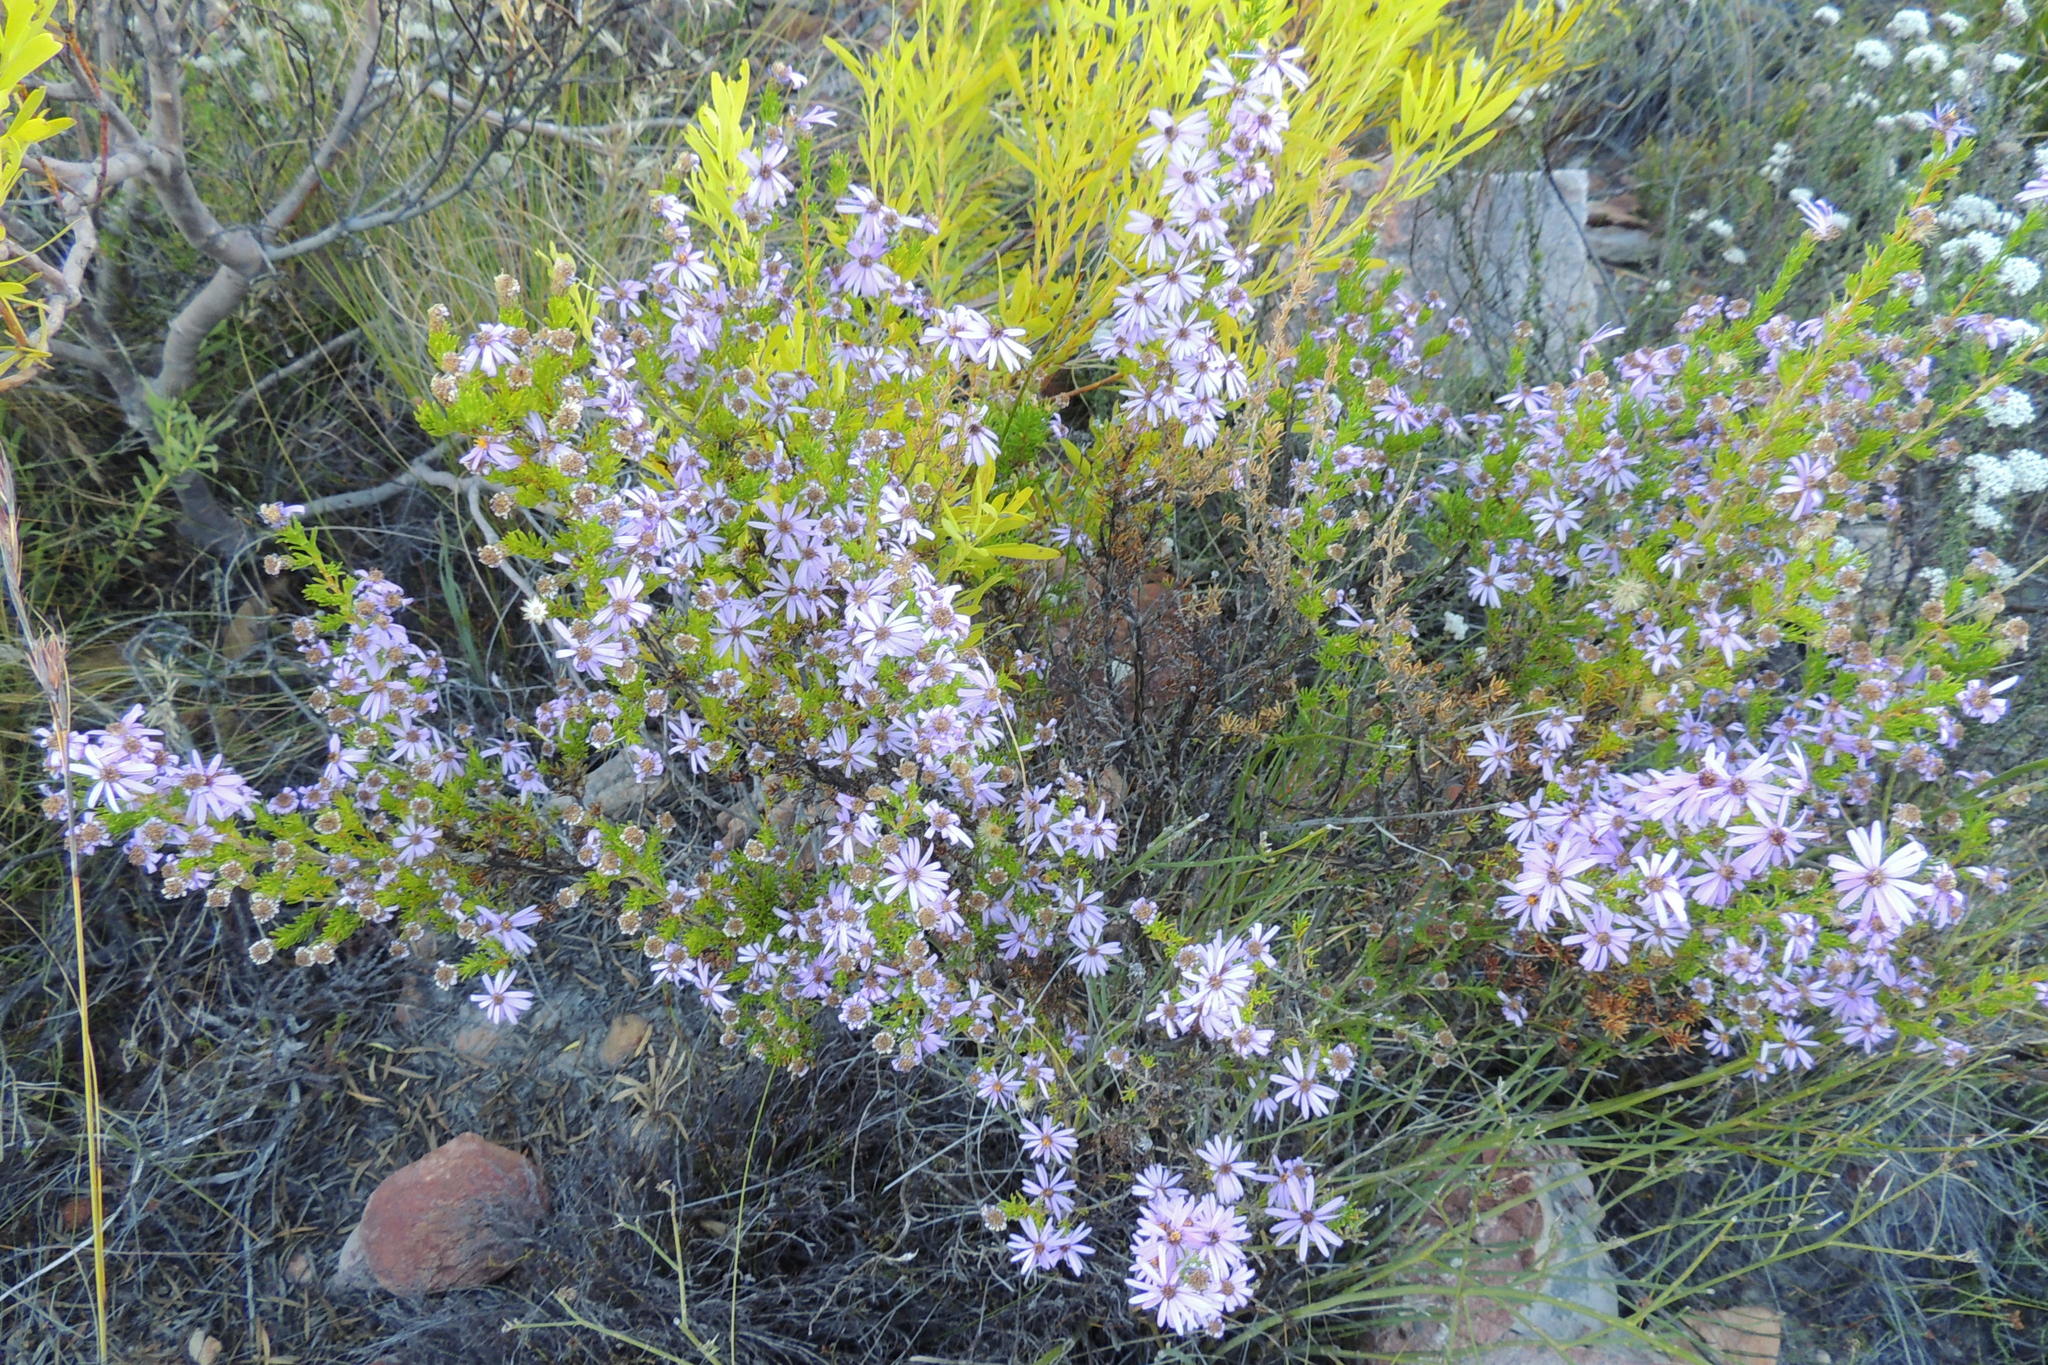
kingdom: Plantae
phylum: Tracheophyta
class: Magnoliopsida
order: Asterales
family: Asteraceae
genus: Felicia
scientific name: Felicia filifolia
